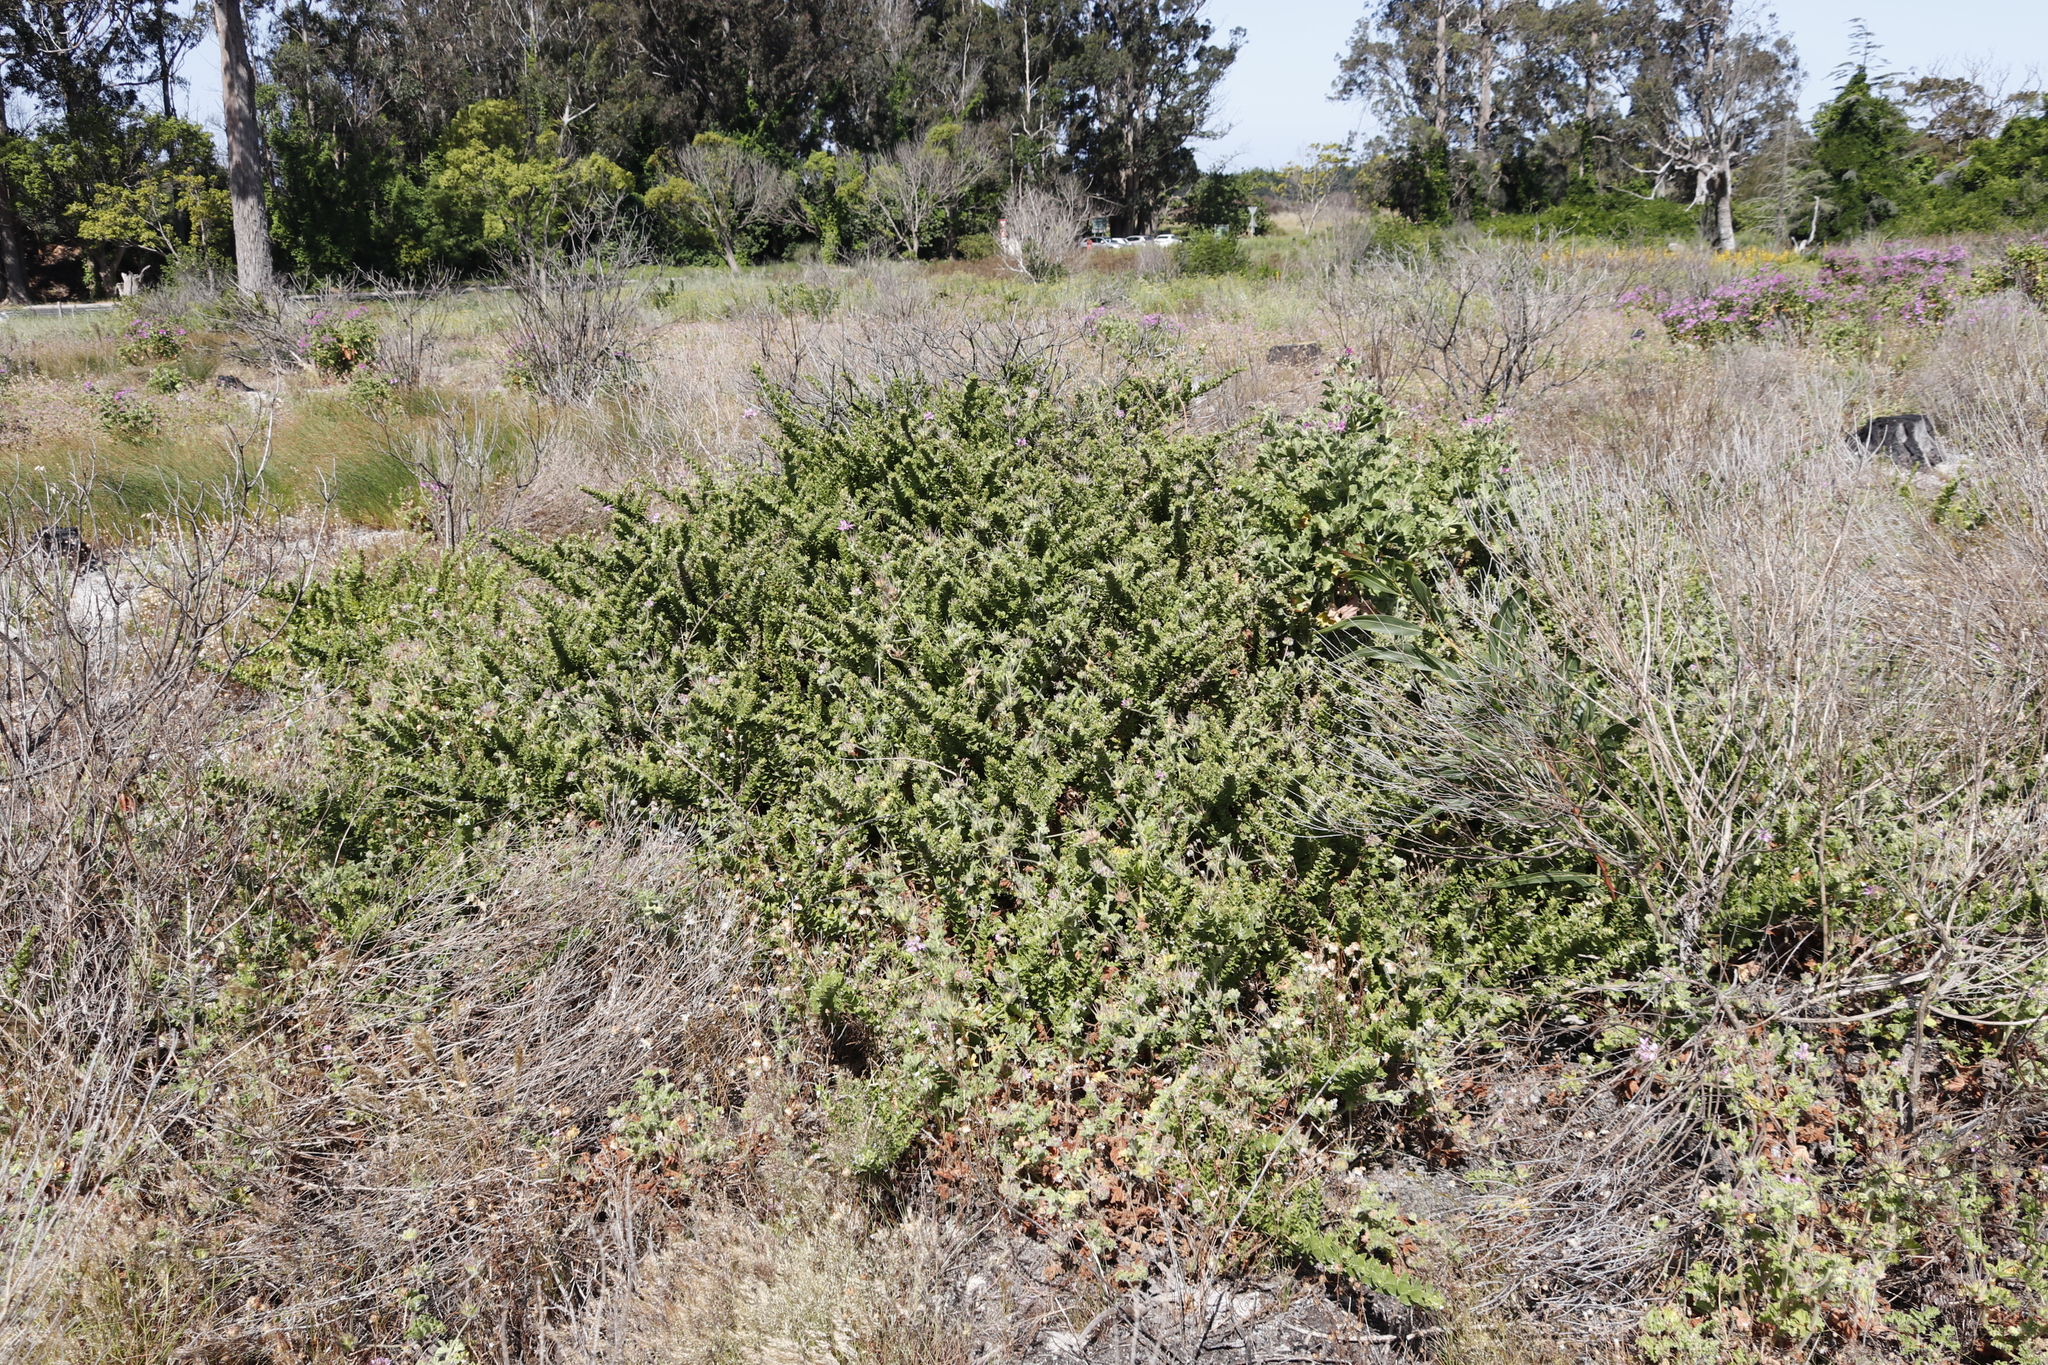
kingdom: Plantae
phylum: Tracheophyta
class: Magnoliopsida
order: Lamiales
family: Scrophulariaceae
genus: Oftia
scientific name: Oftia africana
